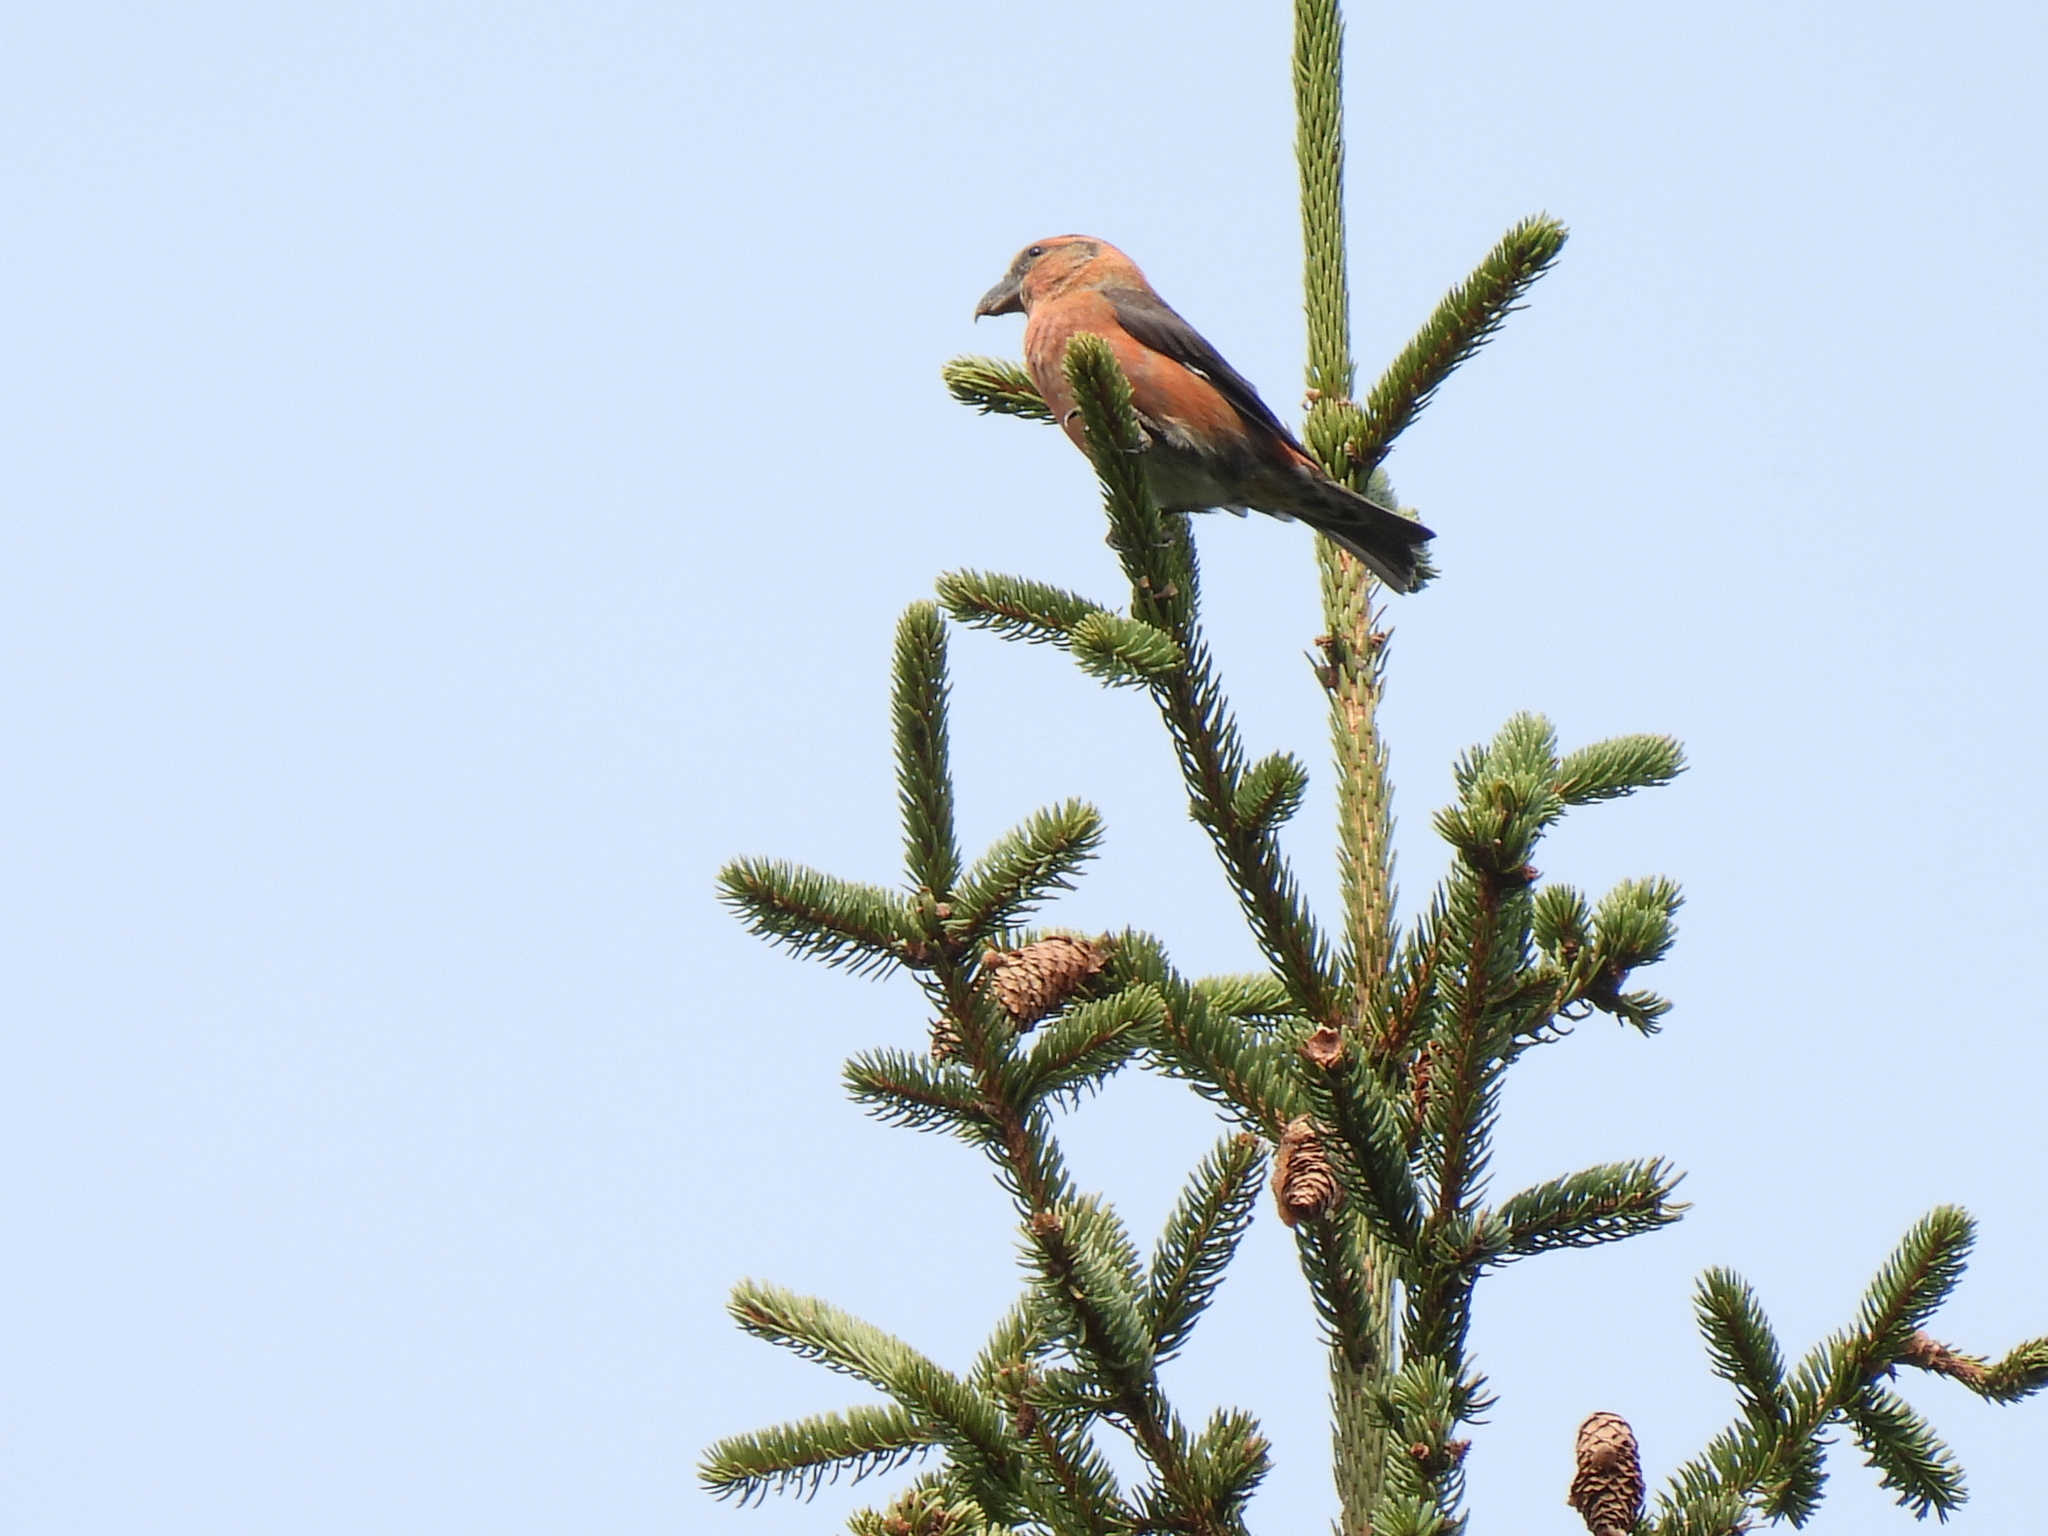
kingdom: Animalia
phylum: Chordata
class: Aves
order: Passeriformes
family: Fringillidae
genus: Loxia
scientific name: Loxia curvirostra
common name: Red crossbill
